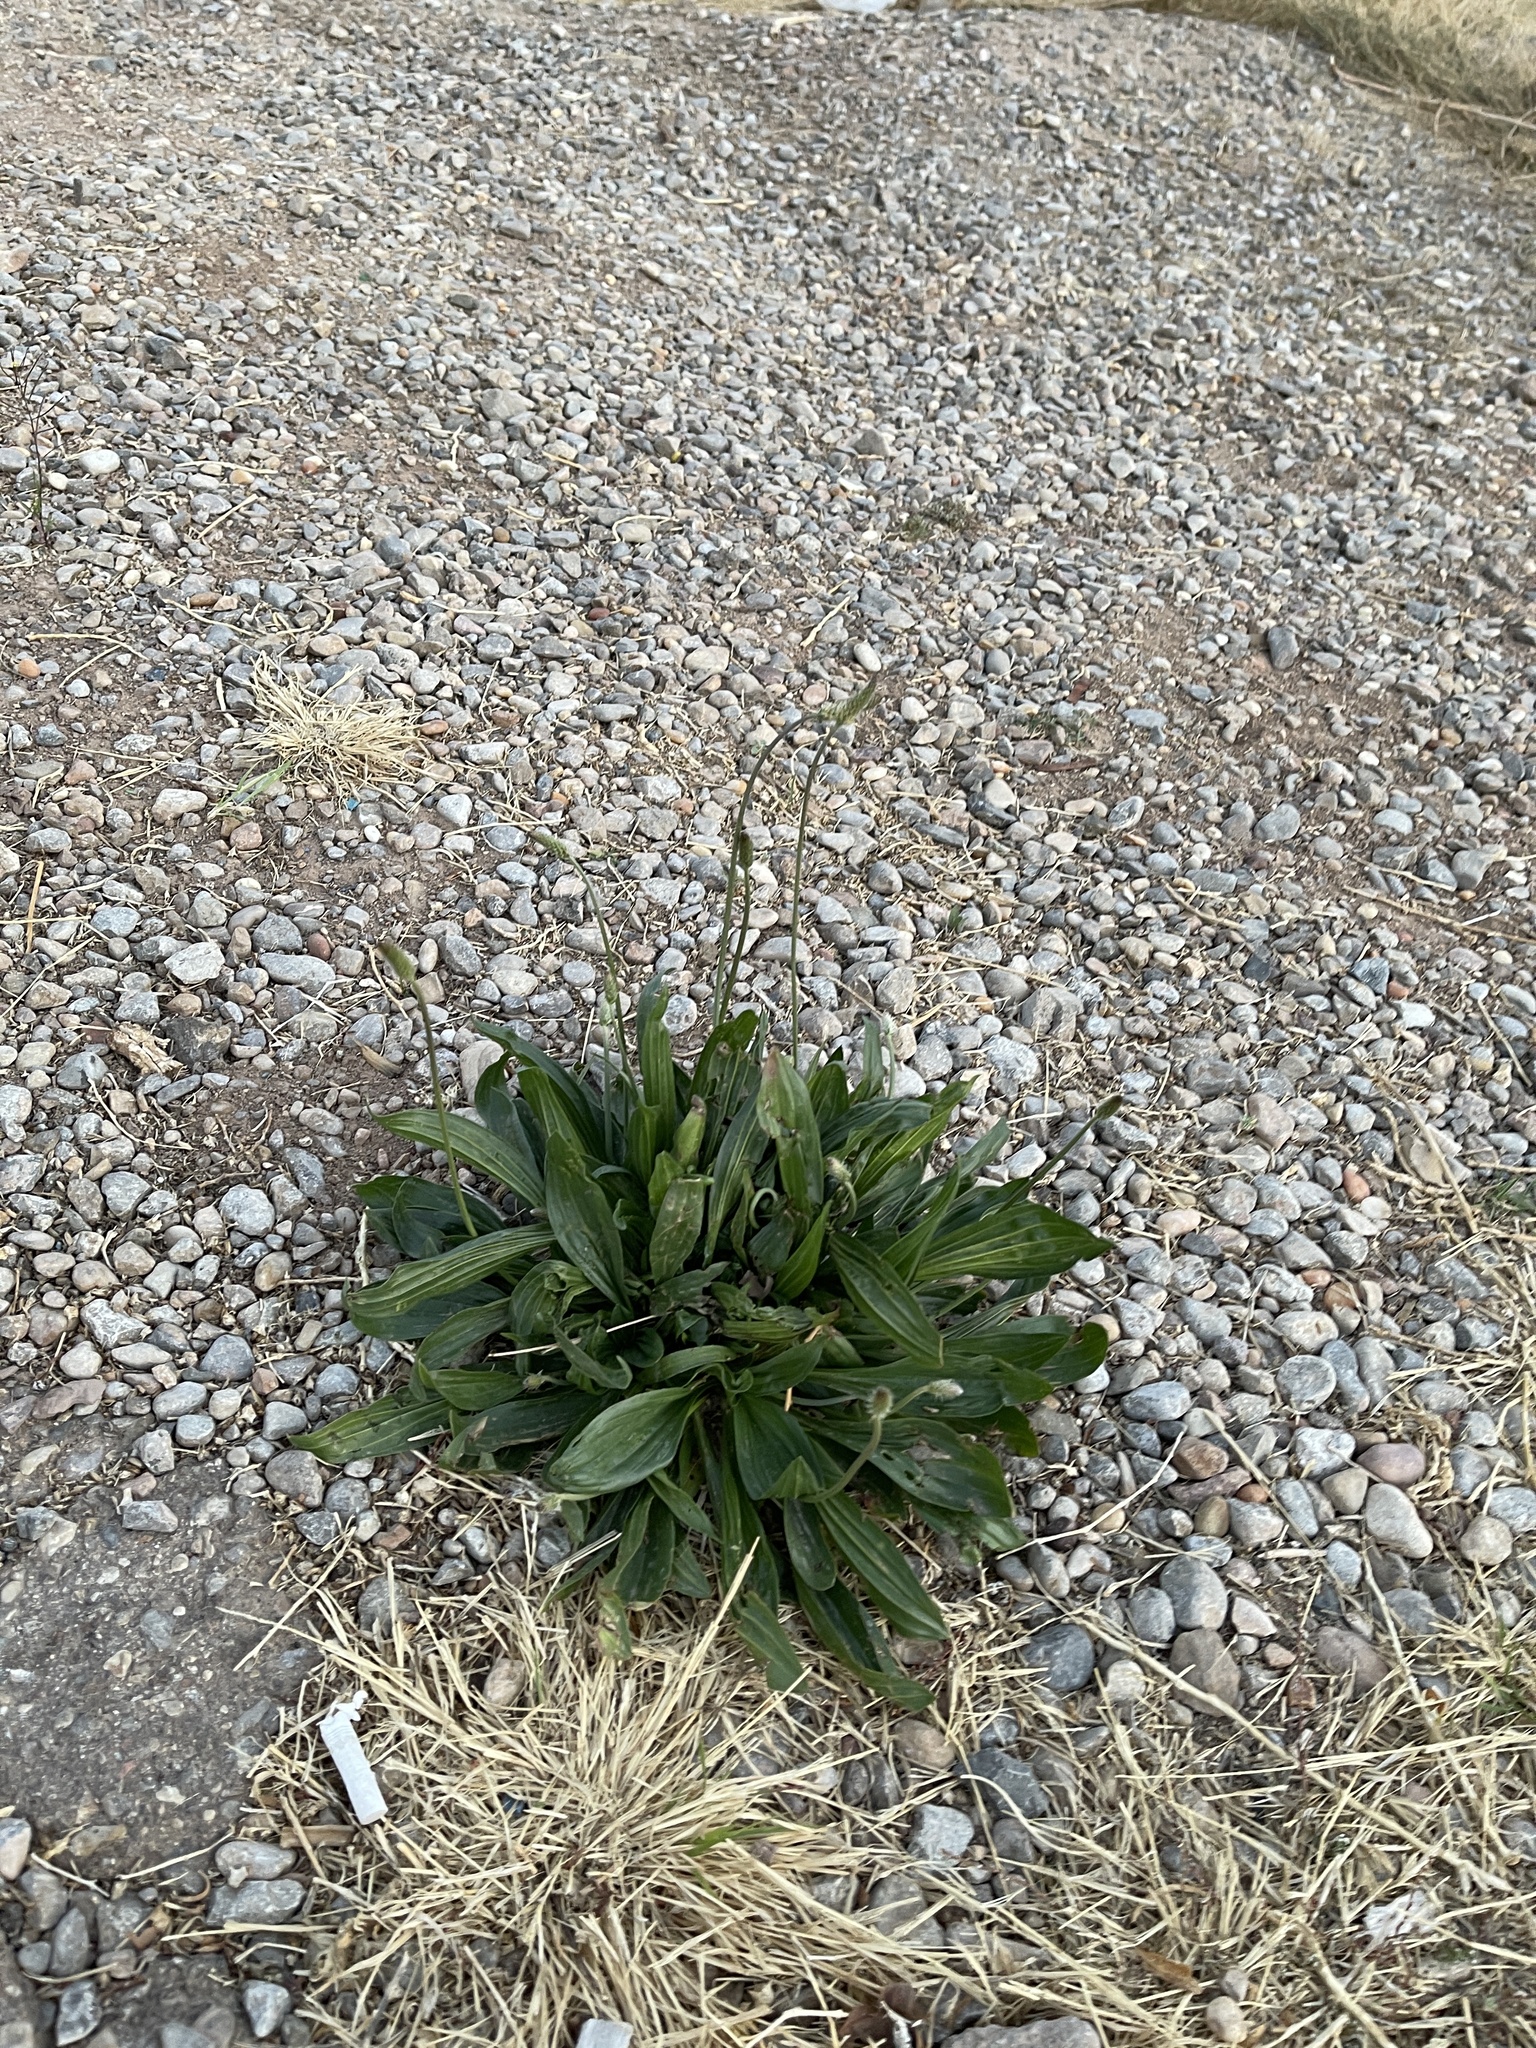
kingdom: Plantae
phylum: Tracheophyta
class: Magnoliopsida
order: Lamiales
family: Plantaginaceae
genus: Plantago
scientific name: Plantago lanceolata
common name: Ribwort plantain
